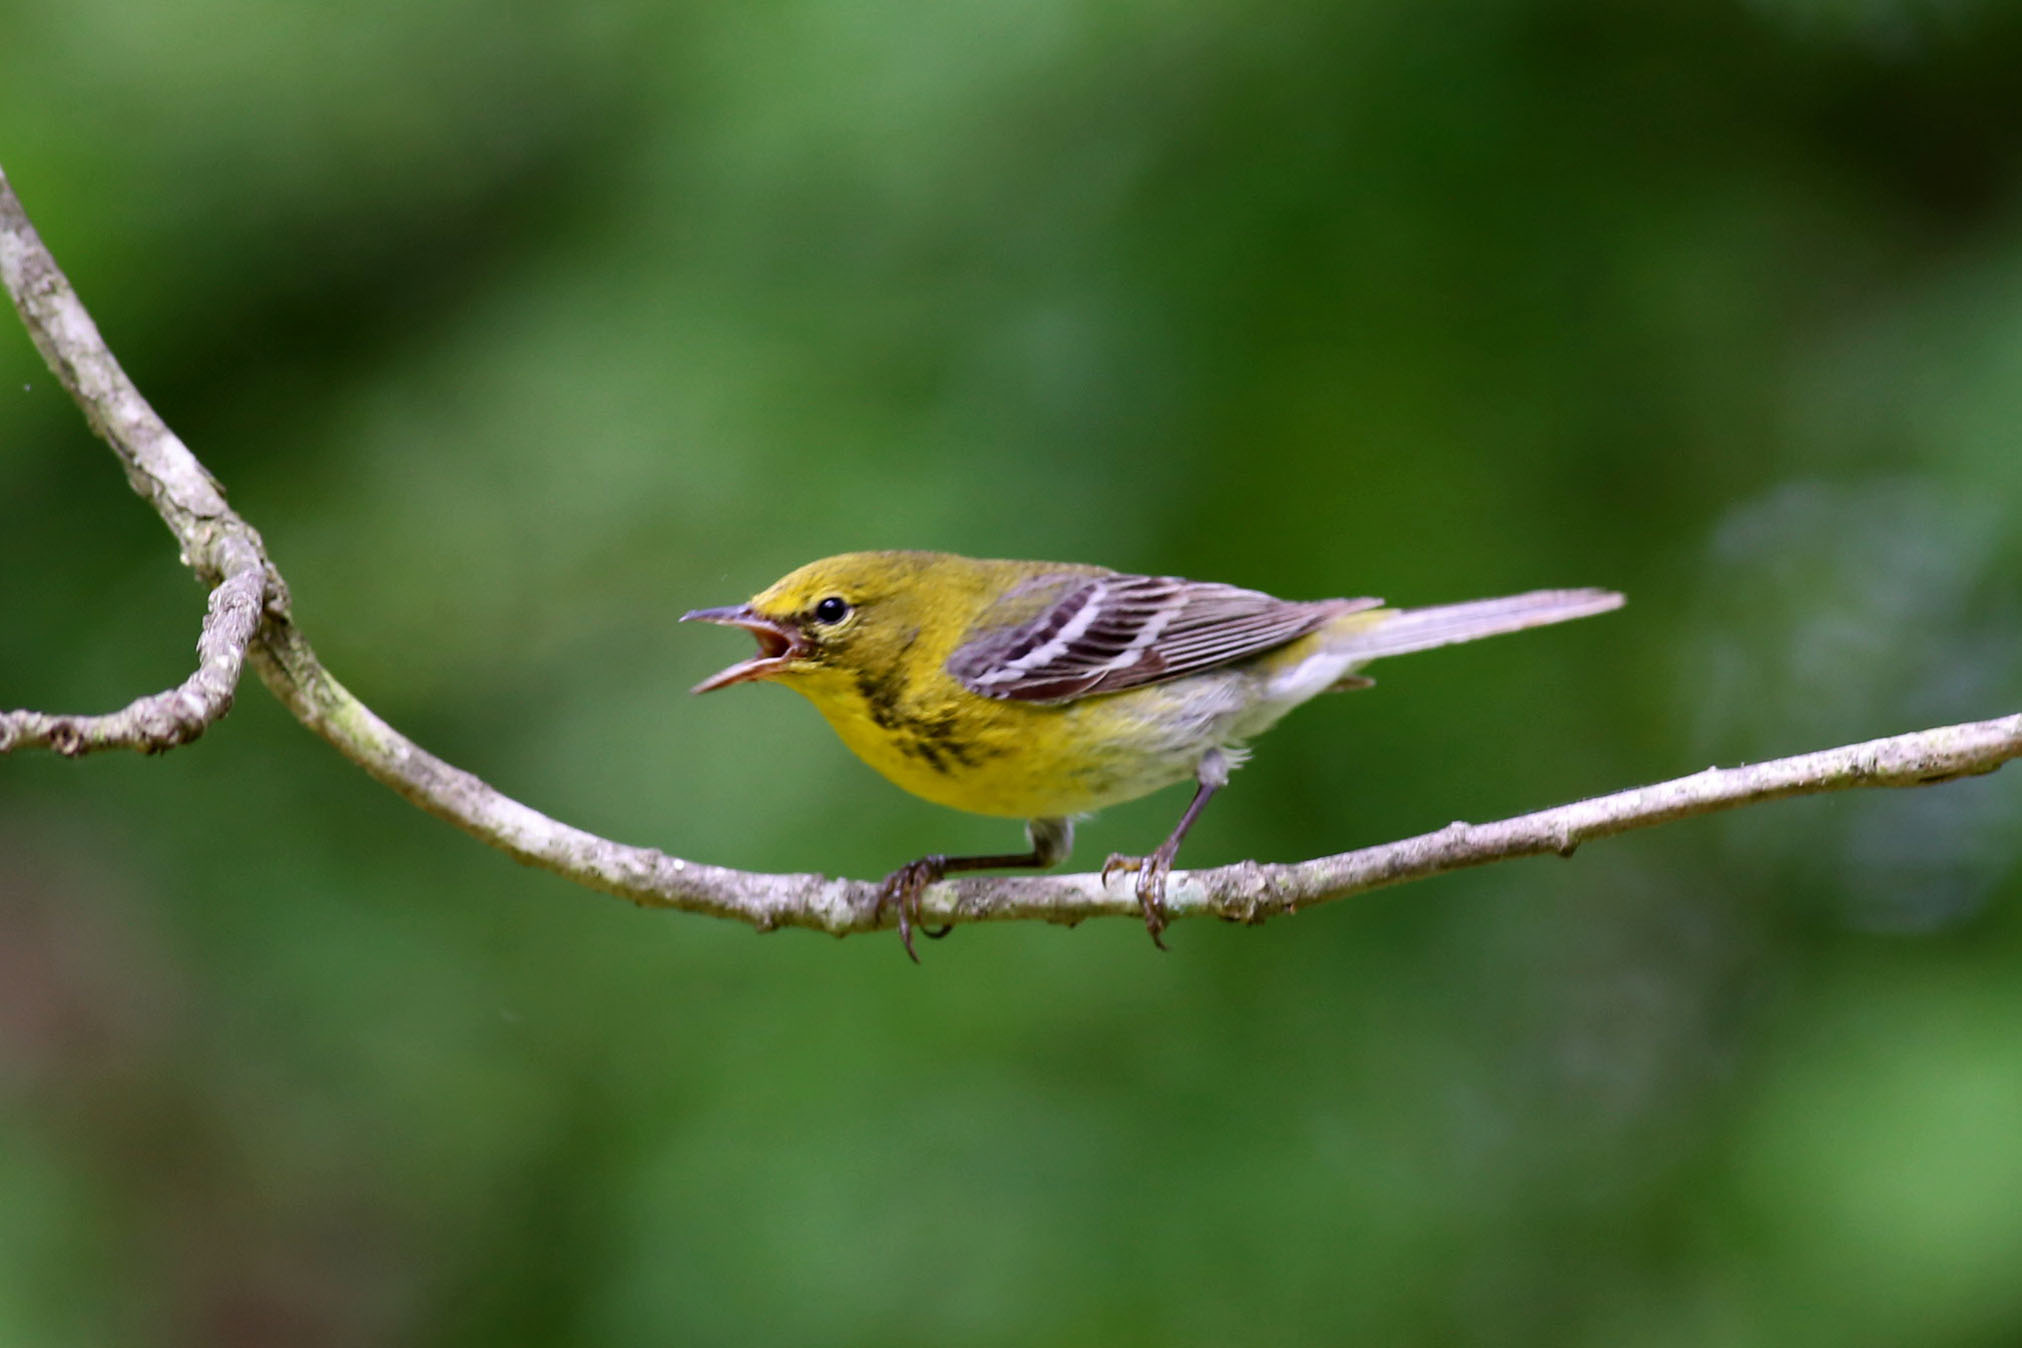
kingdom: Animalia
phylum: Chordata
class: Aves
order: Passeriformes
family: Parulidae
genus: Setophaga
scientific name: Setophaga pinus
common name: Pine warbler
